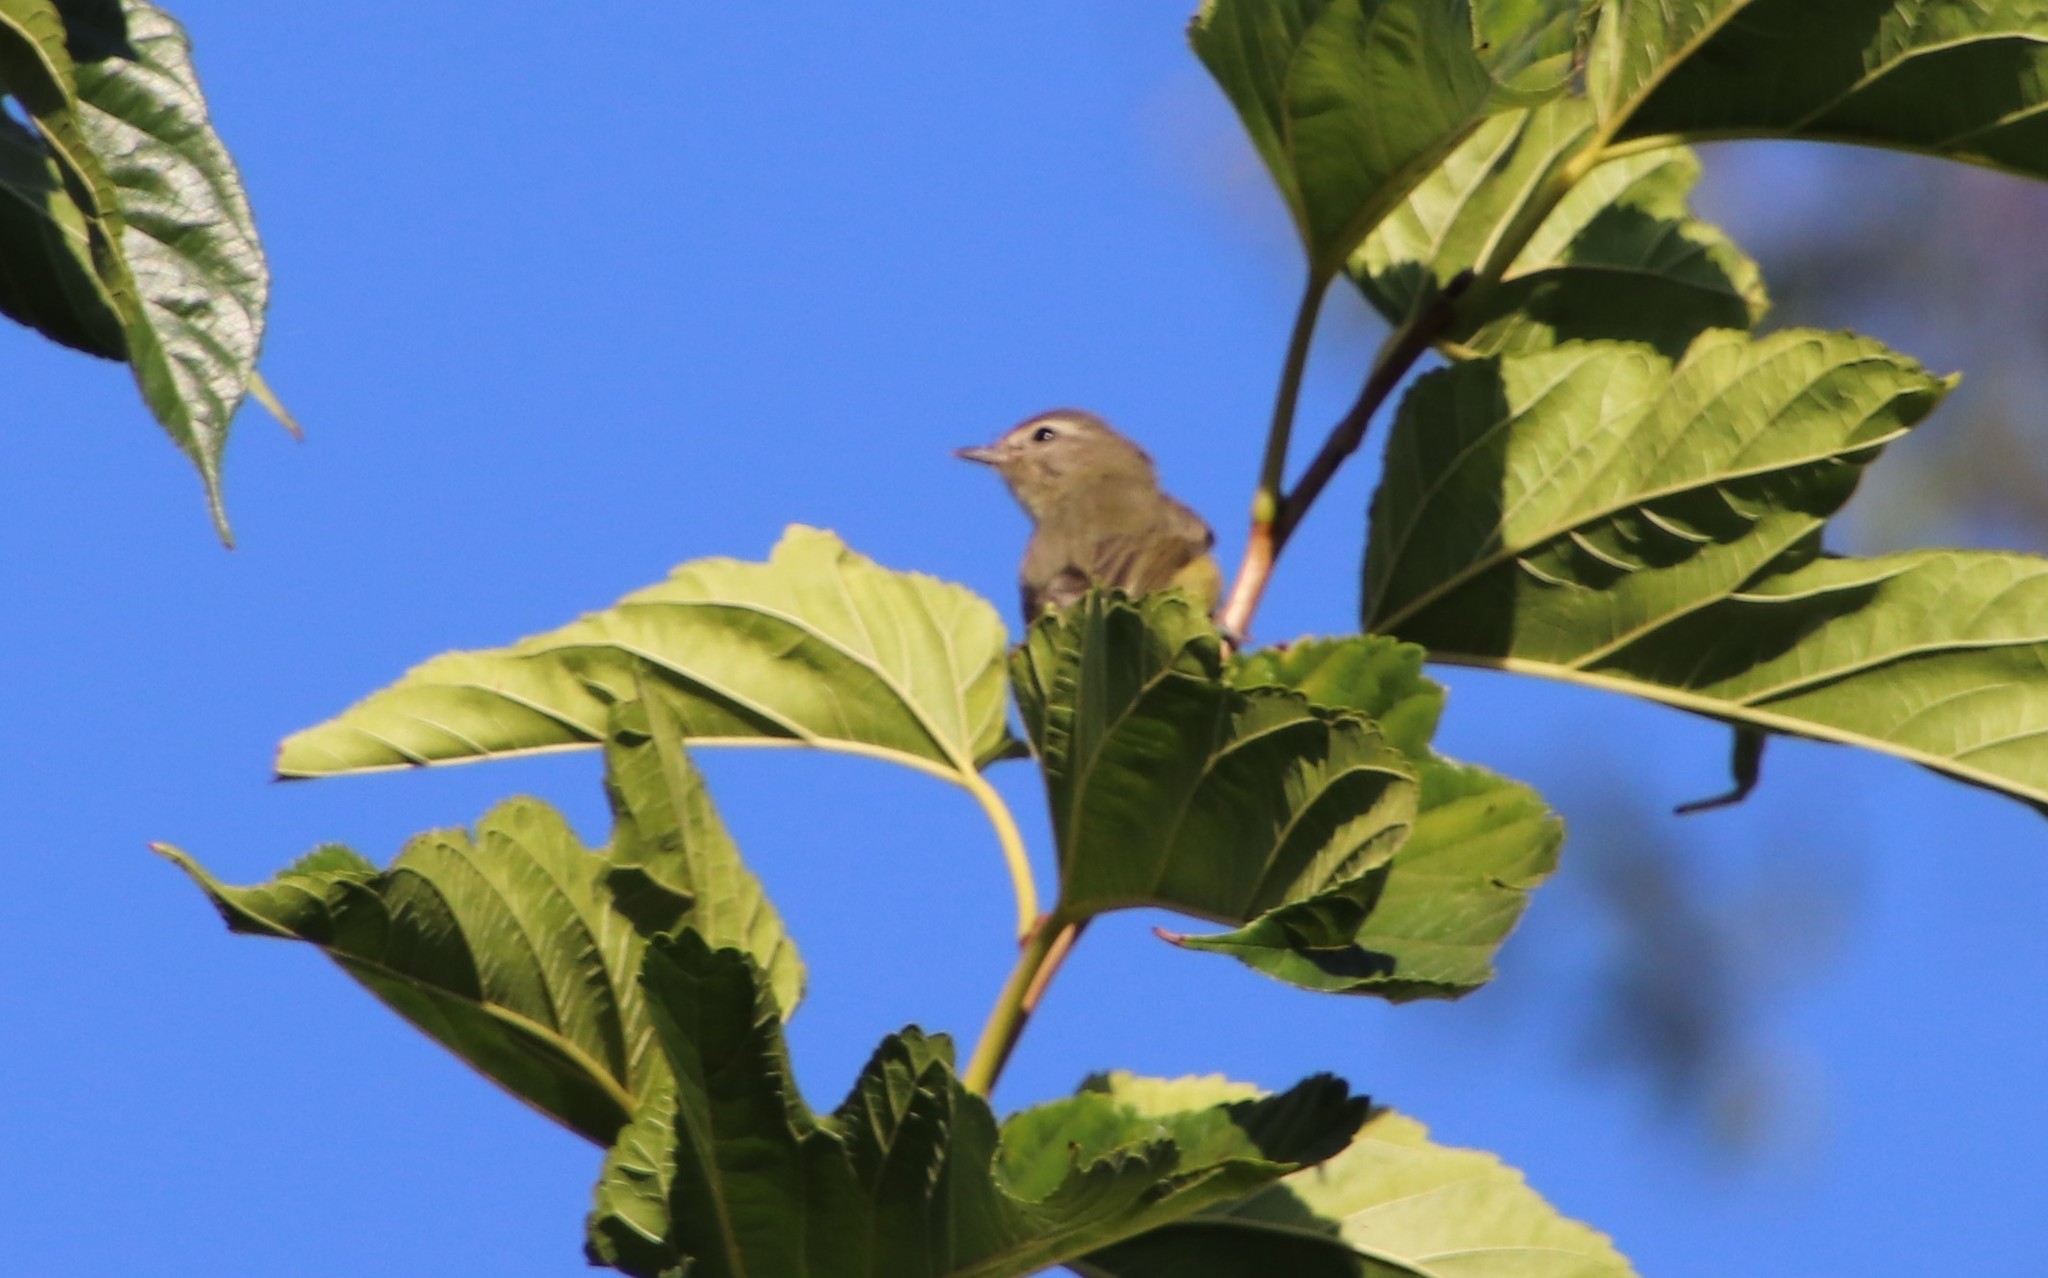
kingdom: Animalia
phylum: Chordata
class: Aves
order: Passeriformes
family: Vireonidae
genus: Vireo
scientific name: Vireo gilvus
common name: Warbling vireo
